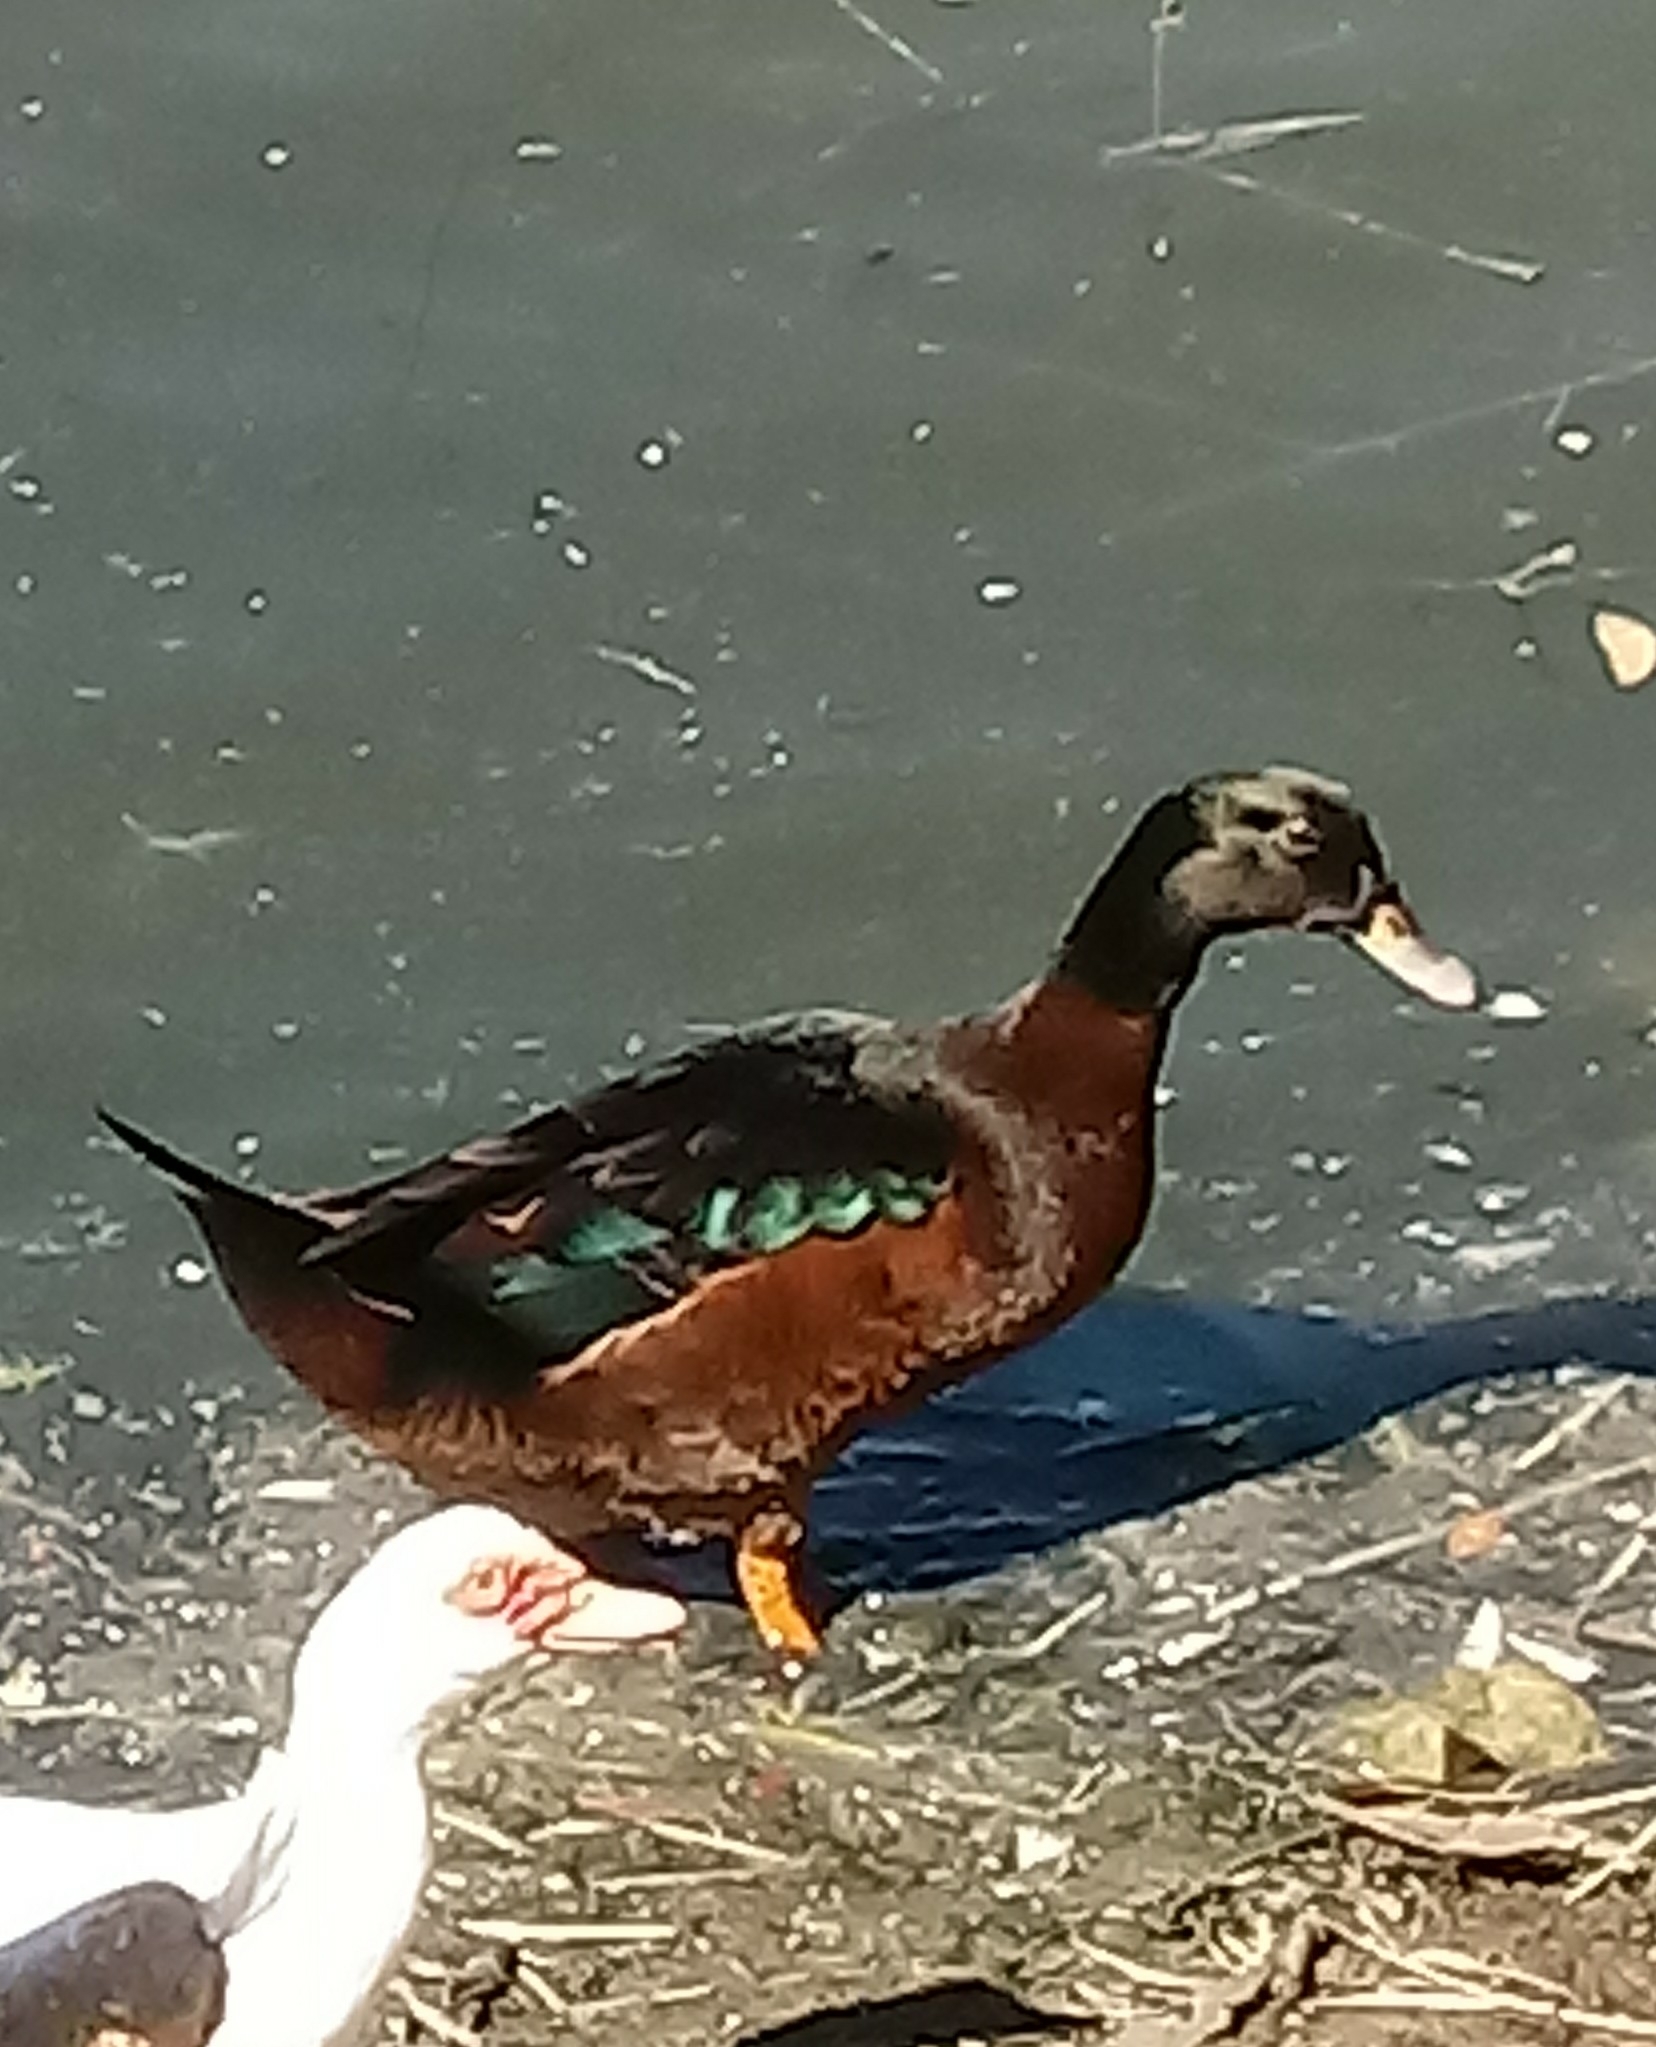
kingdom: Animalia
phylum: Chordata
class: Aves
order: Anseriformes
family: Anatidae
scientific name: Anatidae
